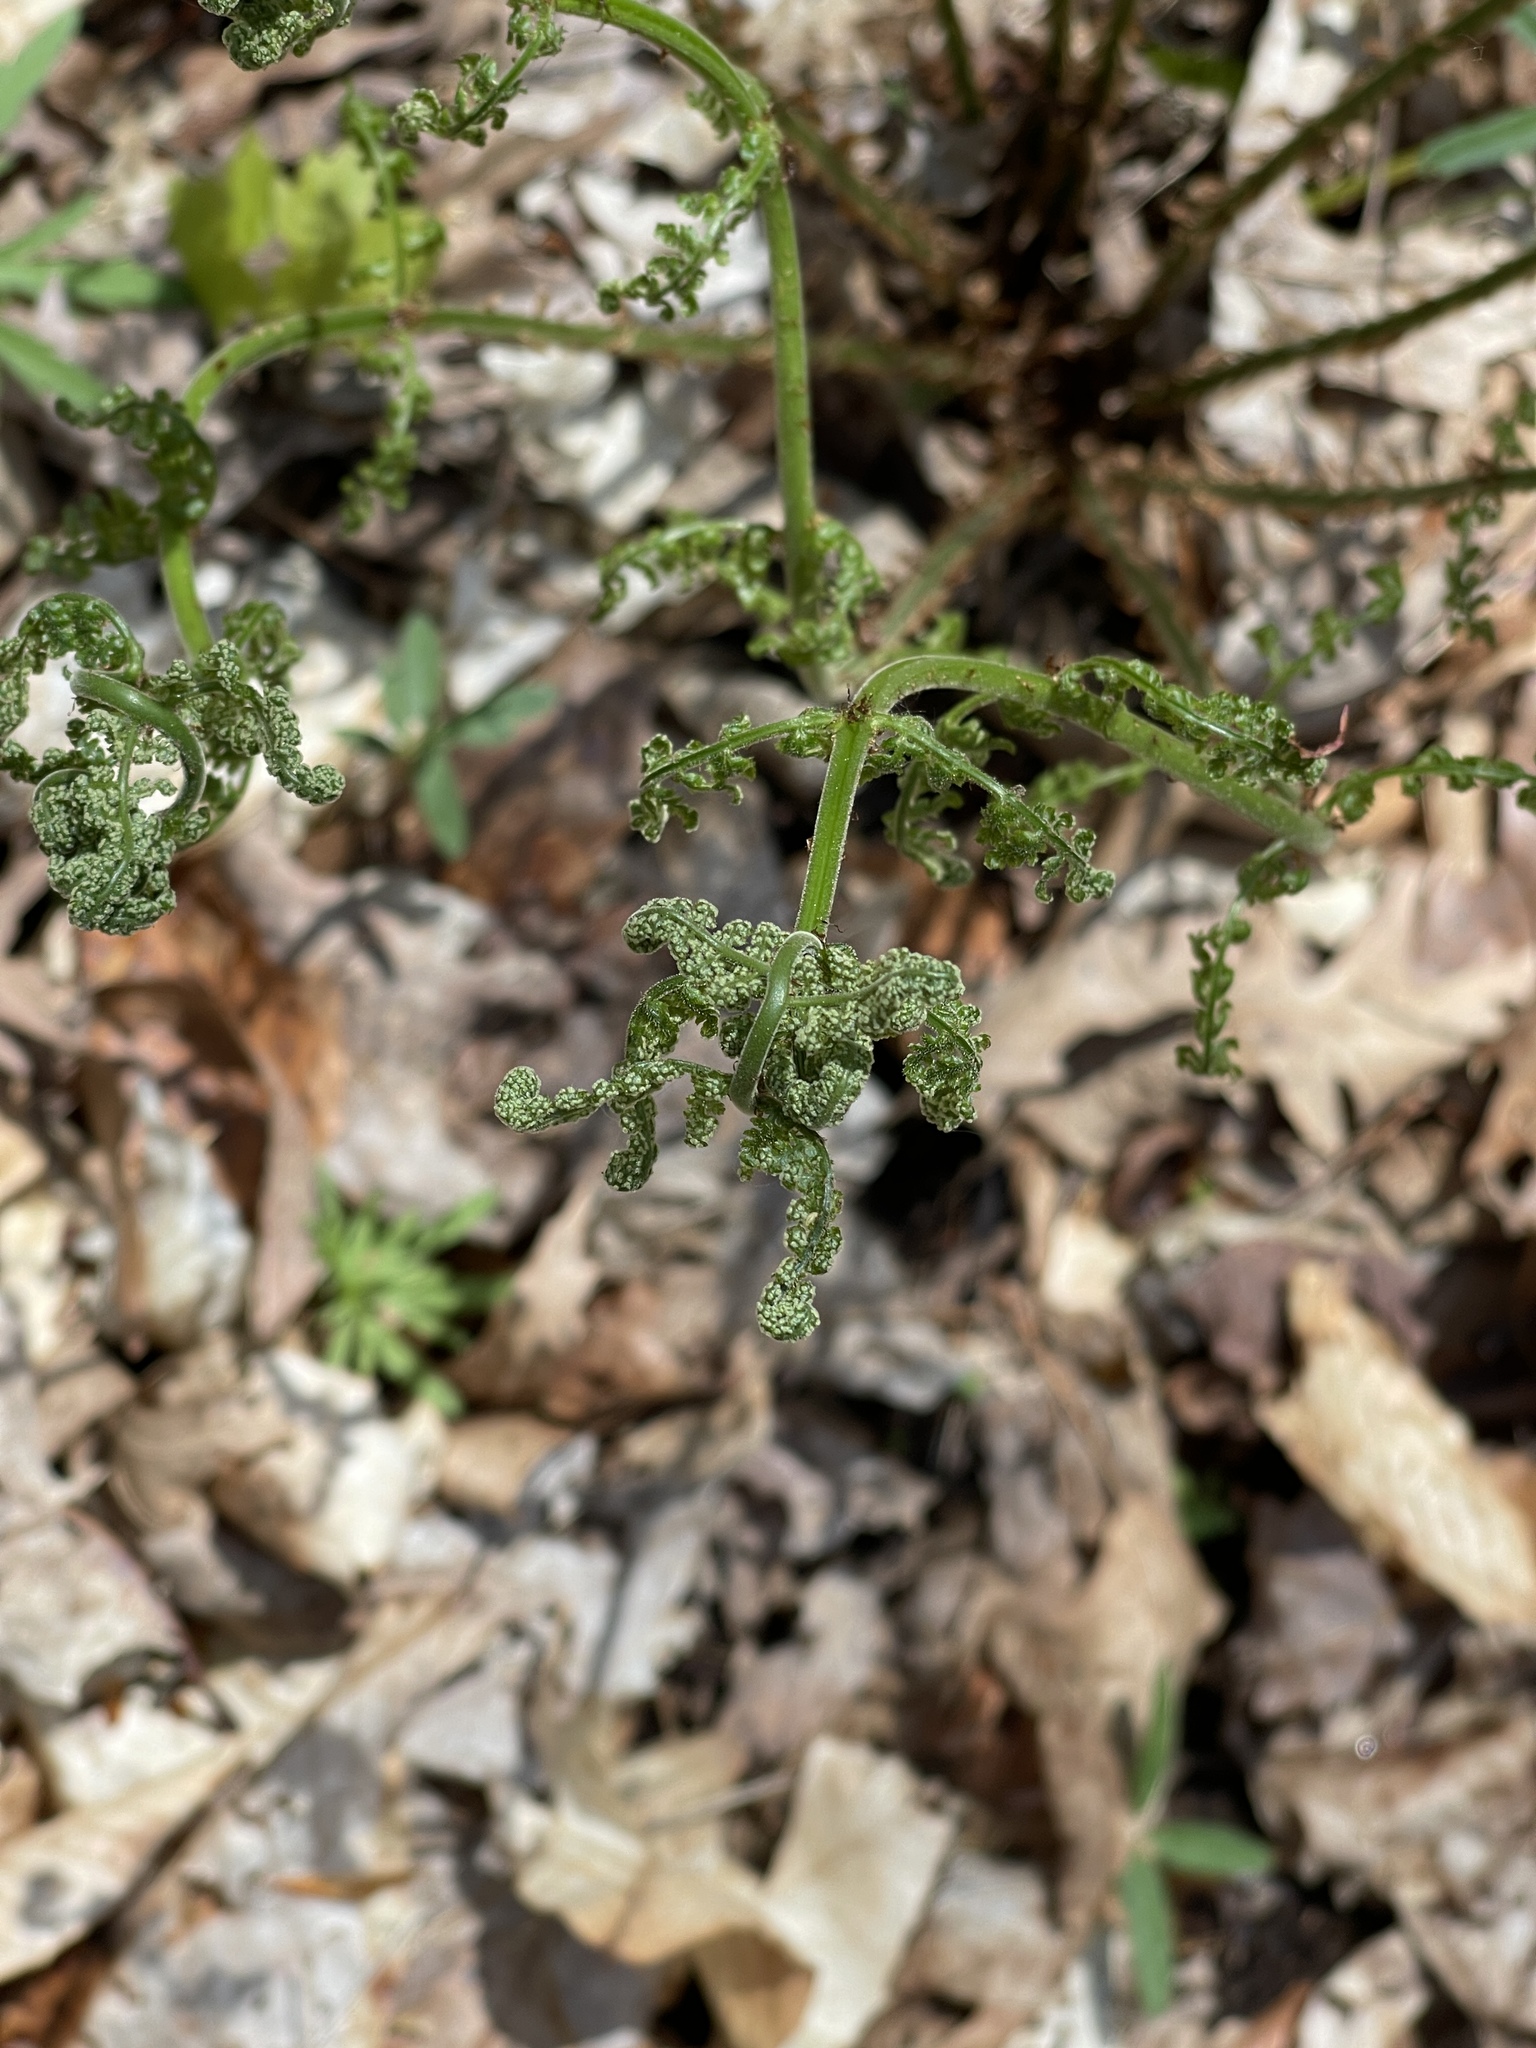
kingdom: Plantae
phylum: Tracheophyta
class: Polypodiopsida
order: Polypodiales
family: Dryopteridaceae
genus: Dryopteris
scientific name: Dryopteris intermedia
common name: Evergreen wood fern
